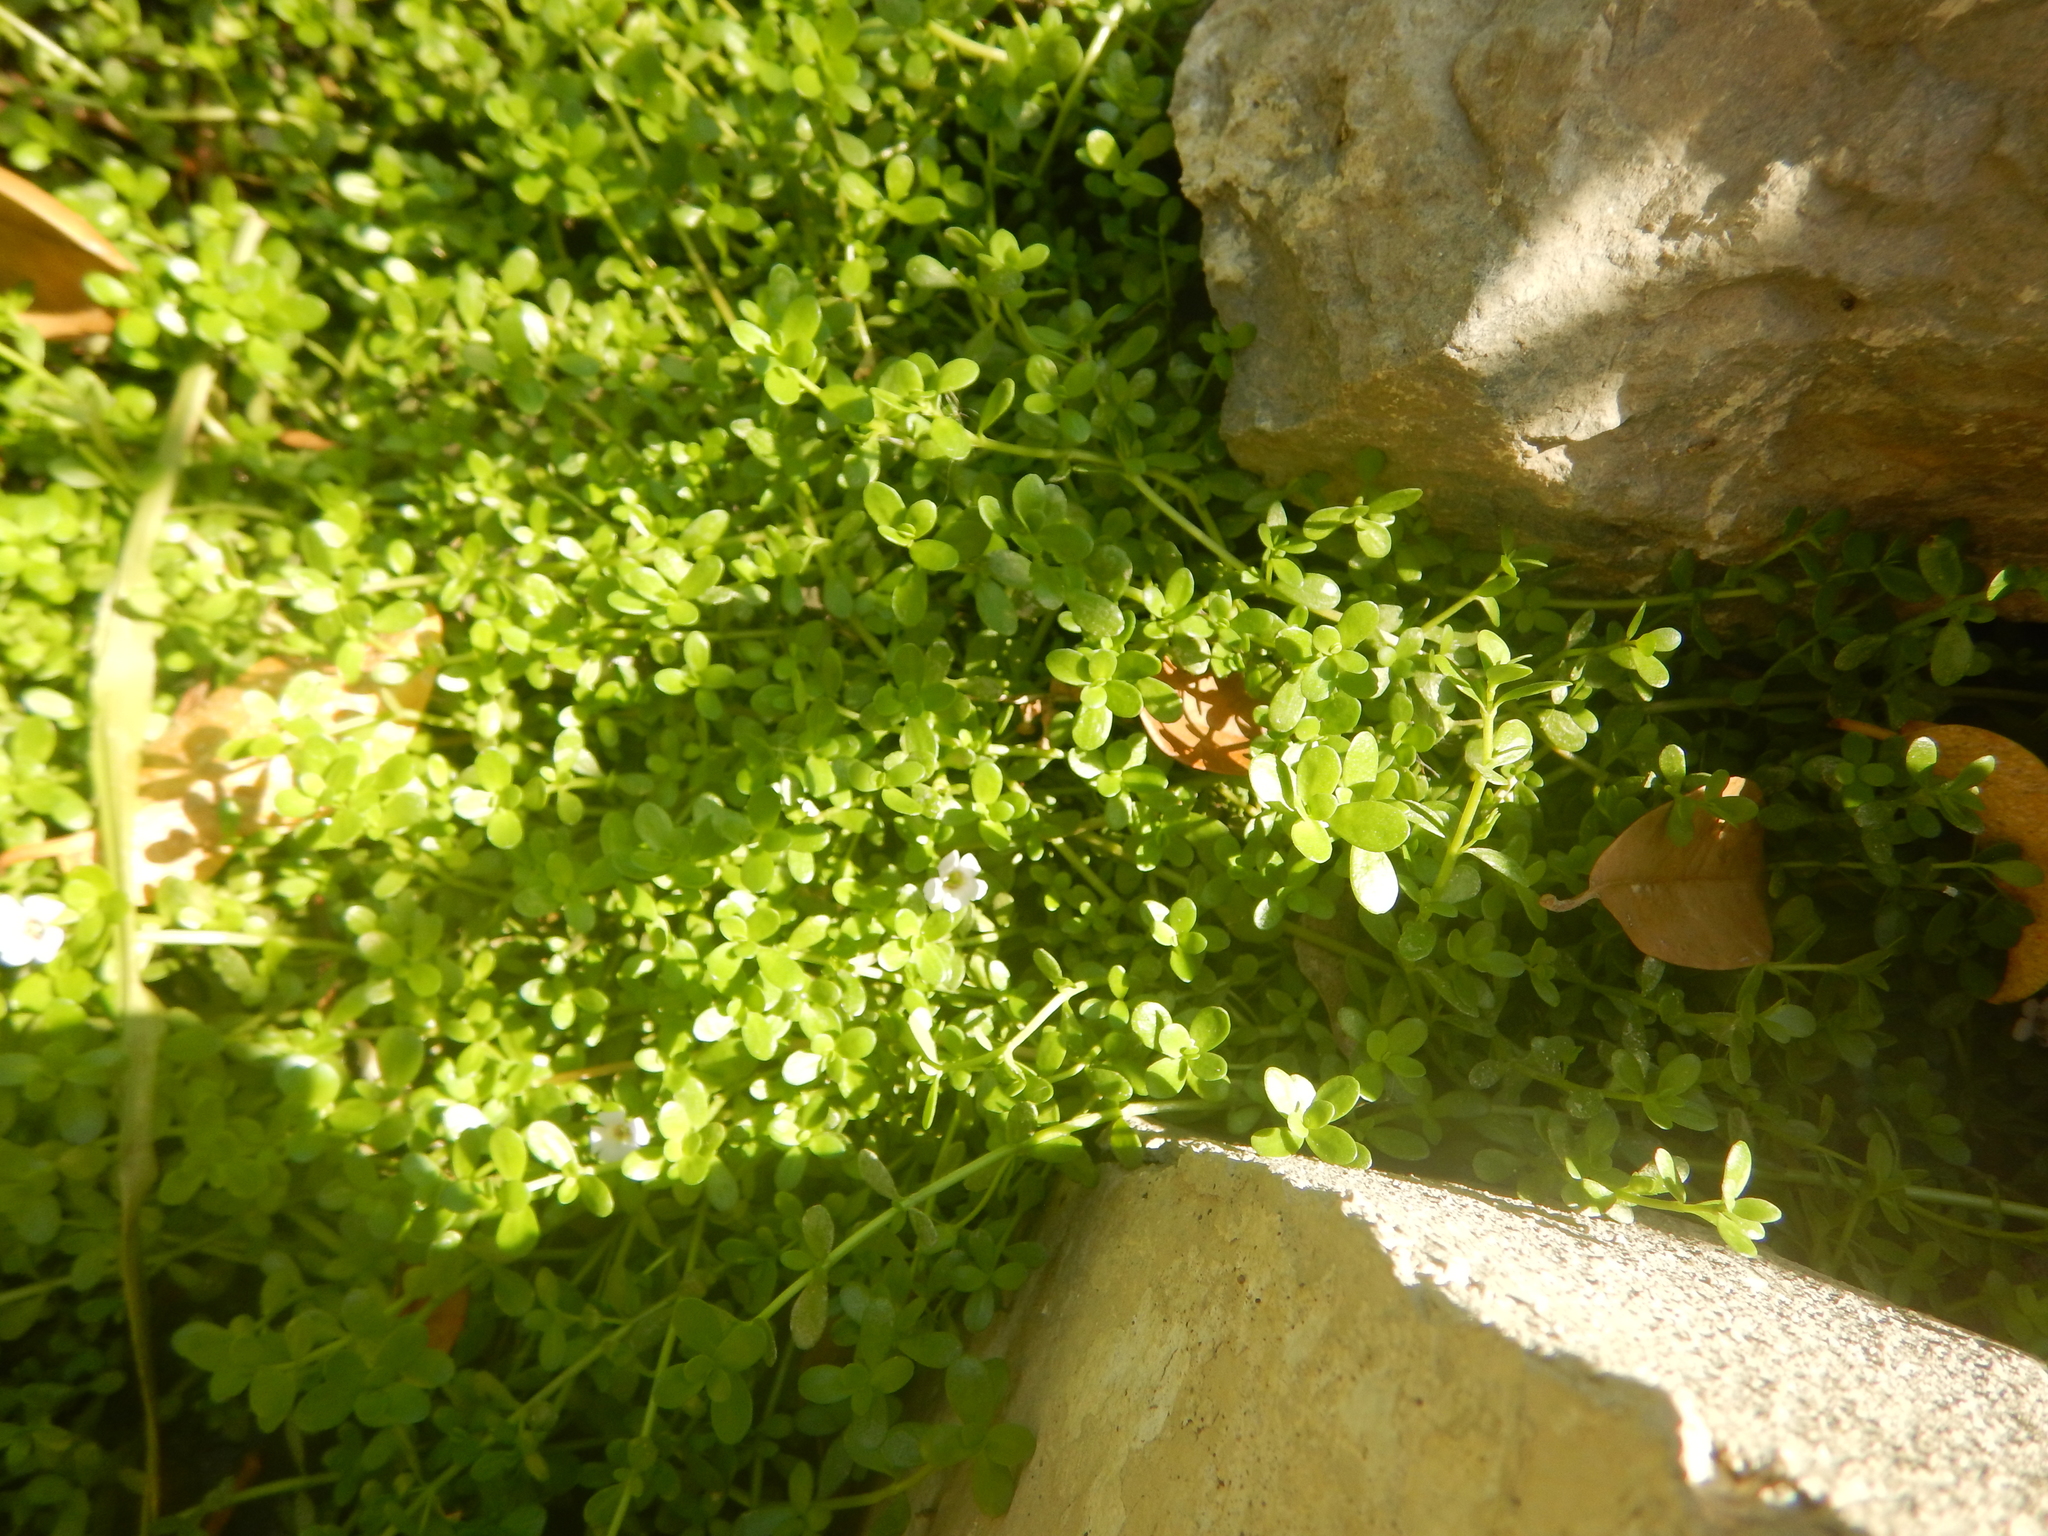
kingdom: Plantae
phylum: Tracheophyta
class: Magnoliopsida
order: Lamiales
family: Plantaginaceae
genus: Bacopa
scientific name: Bacopa monnieri
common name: Indian-pennywort
